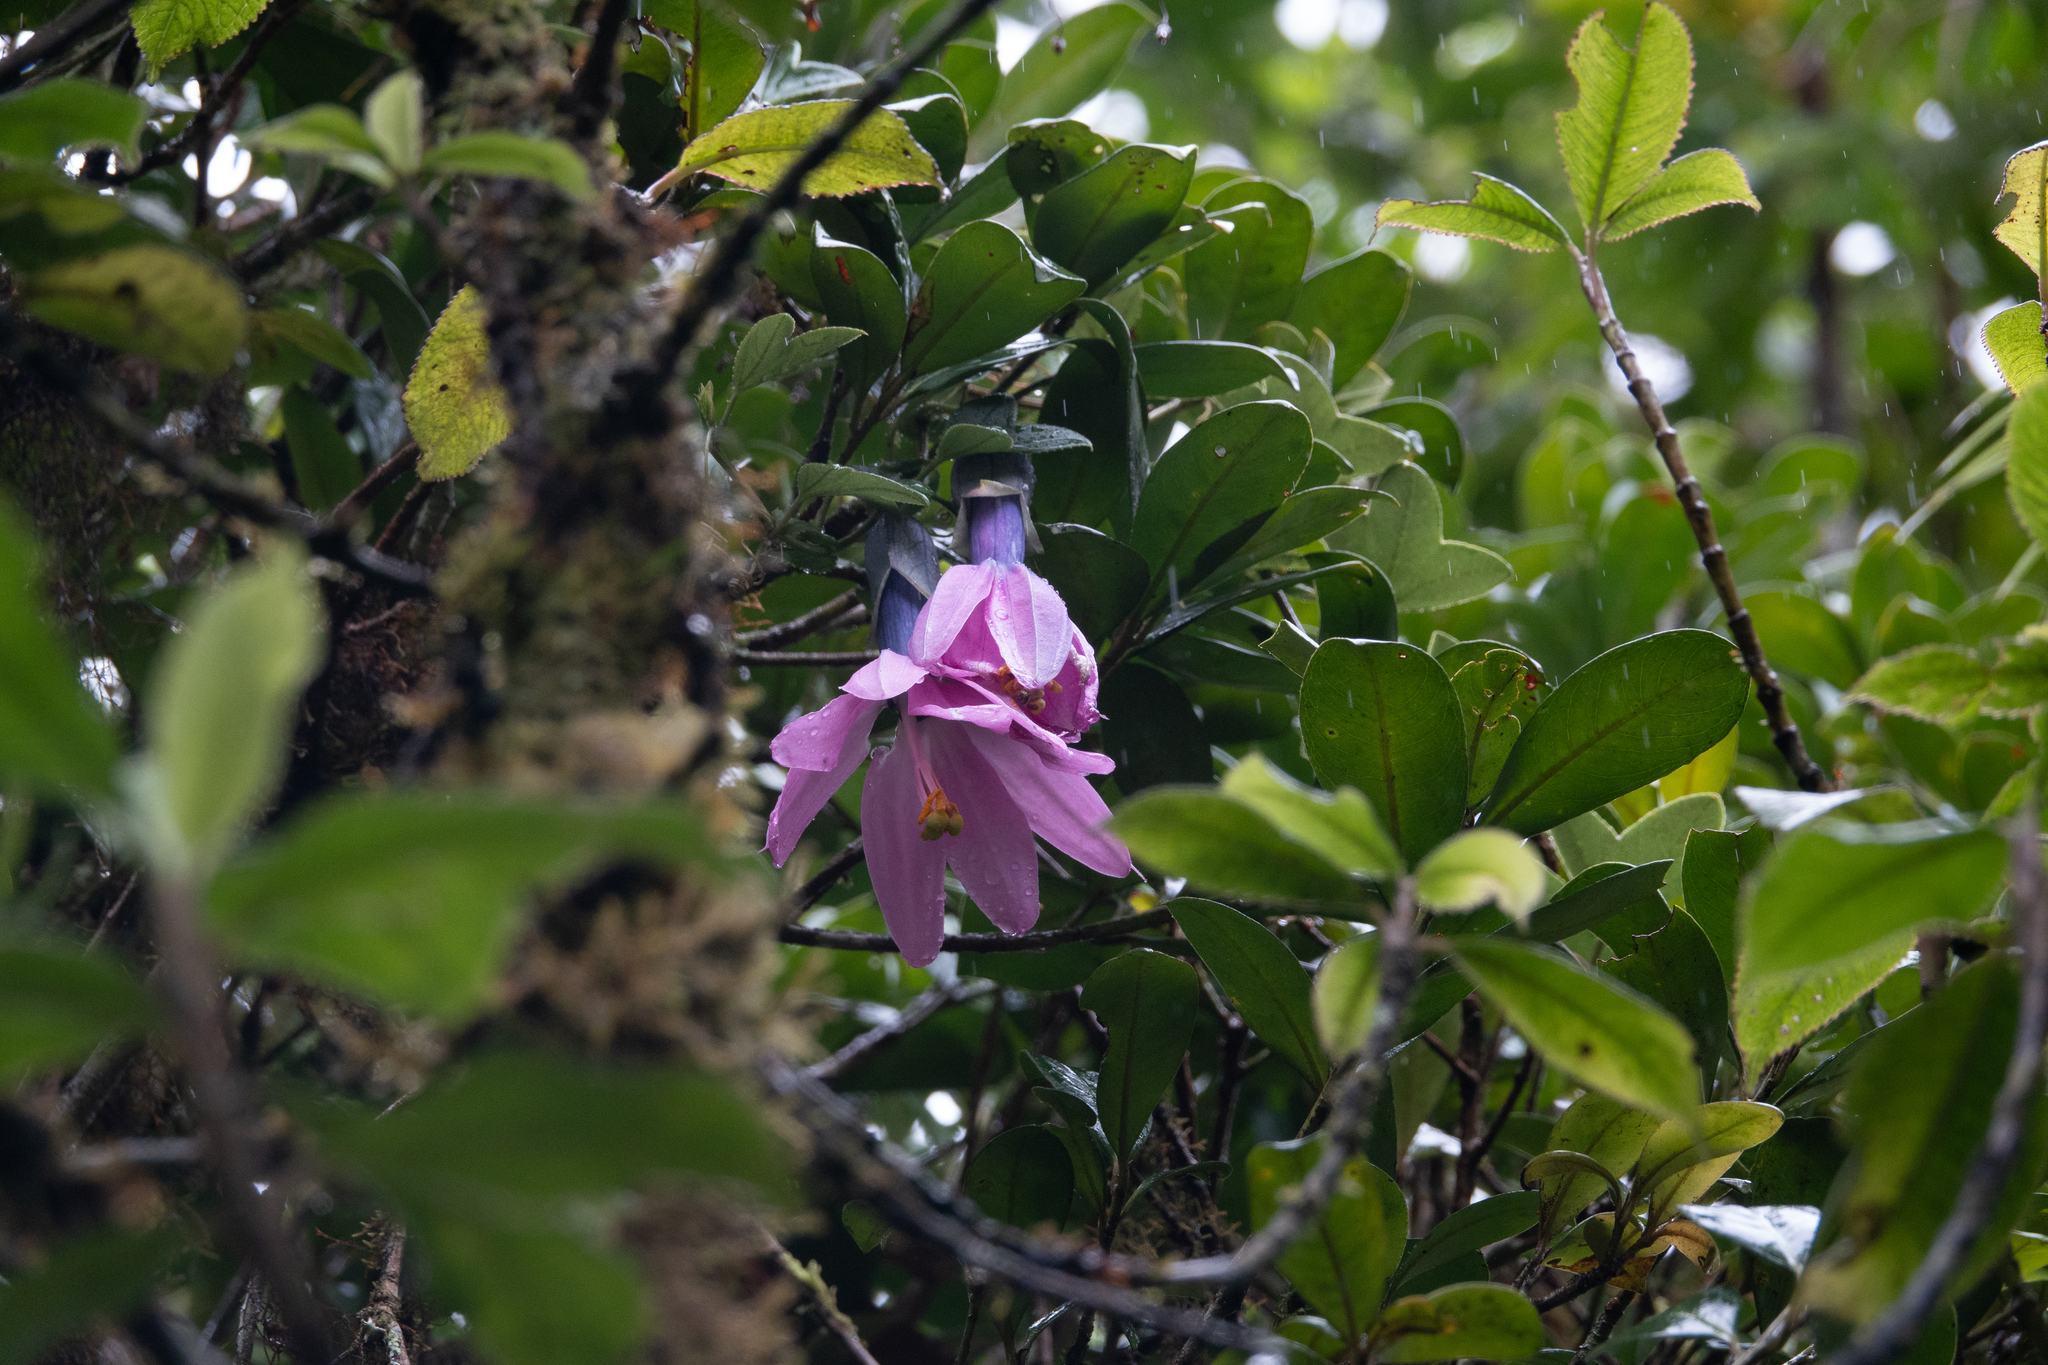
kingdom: Plantae
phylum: Tracheophyta
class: Magnoliopsida
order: Malpighiales
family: Passifloraceae
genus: Passiflora
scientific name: Passiflora cumbalensis
